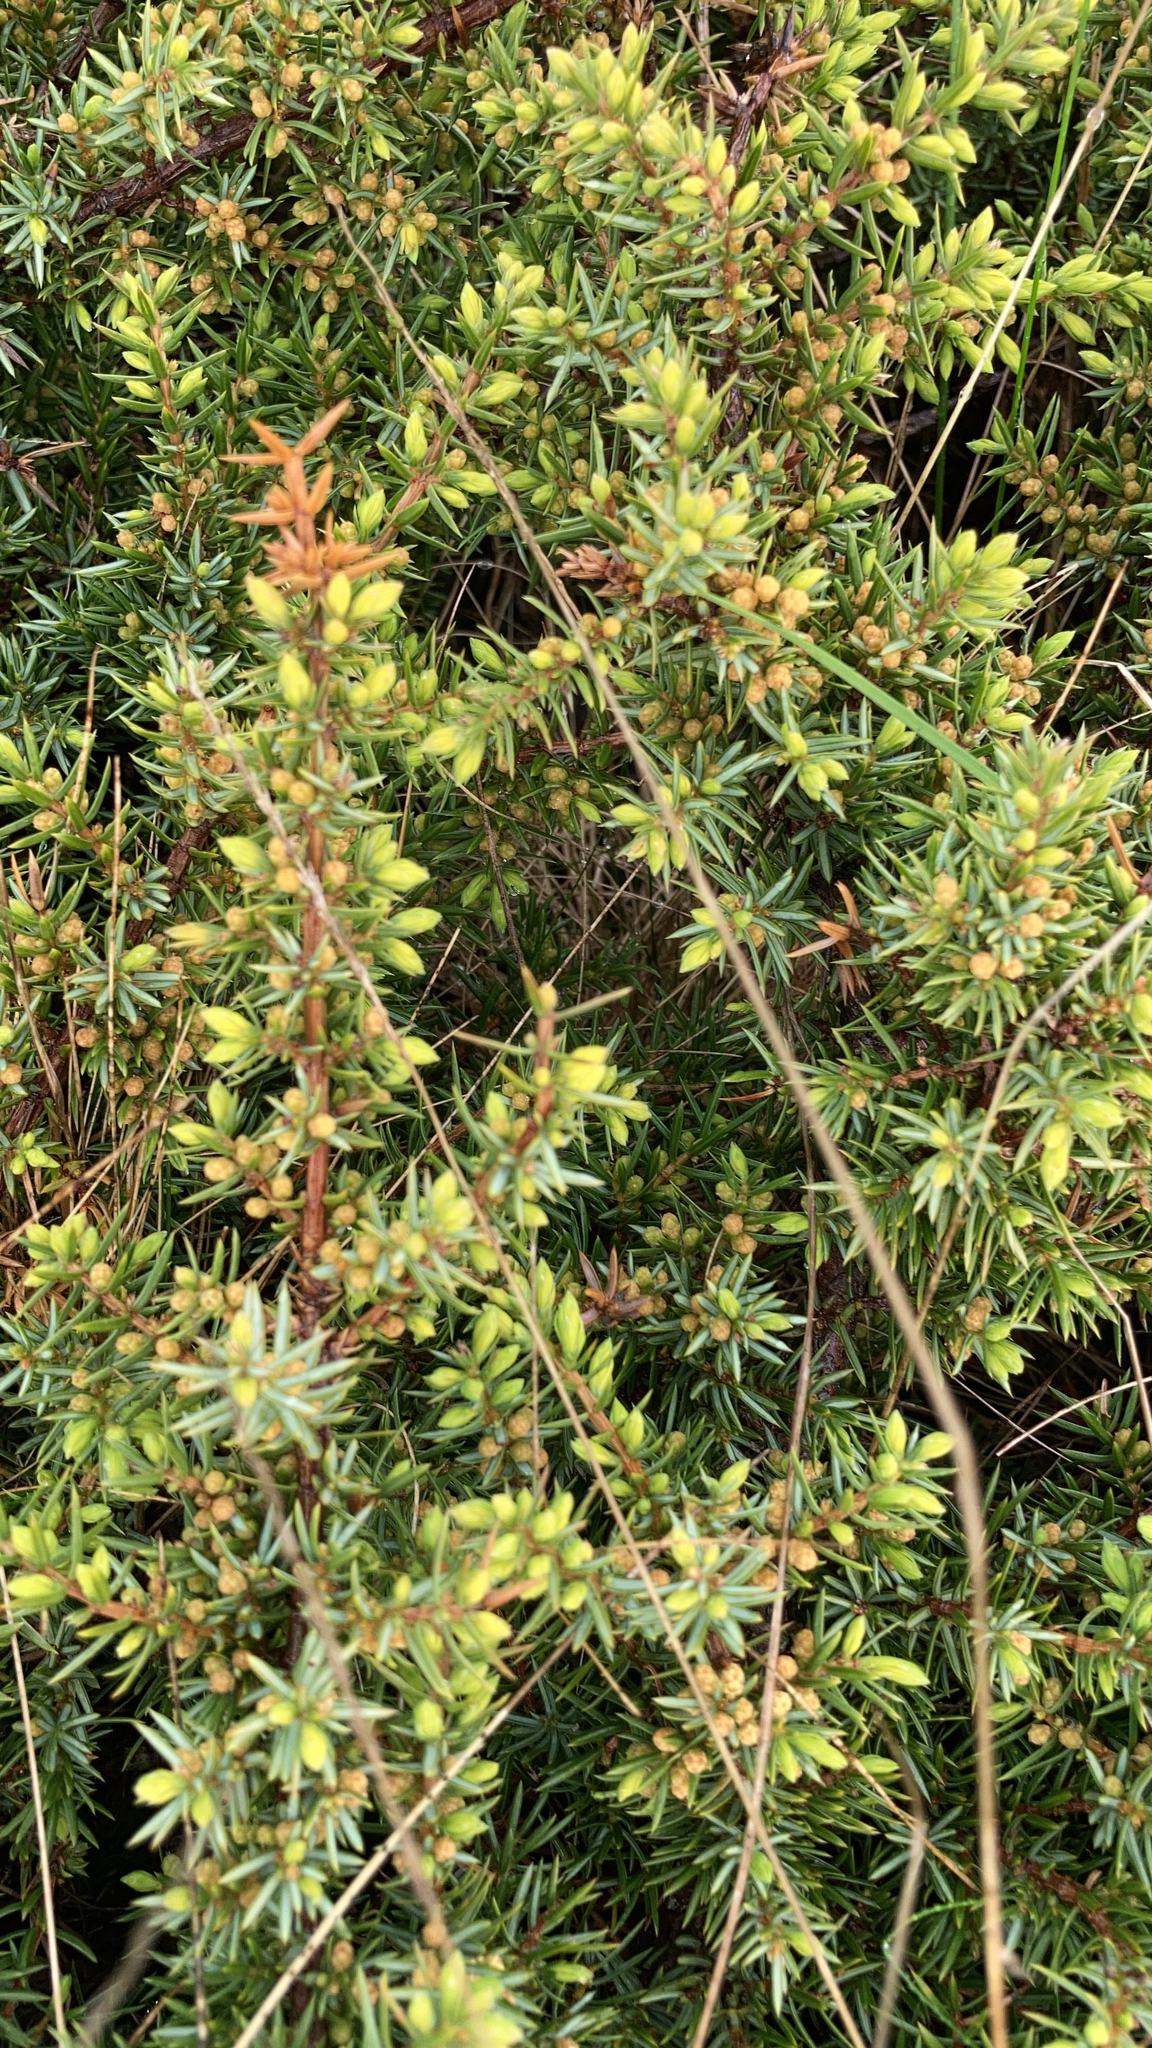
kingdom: Plantae
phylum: Tracheophyta
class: Pinopsida
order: Pinales
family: Cupressaceae
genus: Juniperus
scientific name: Juniperus communis
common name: Common juniper
